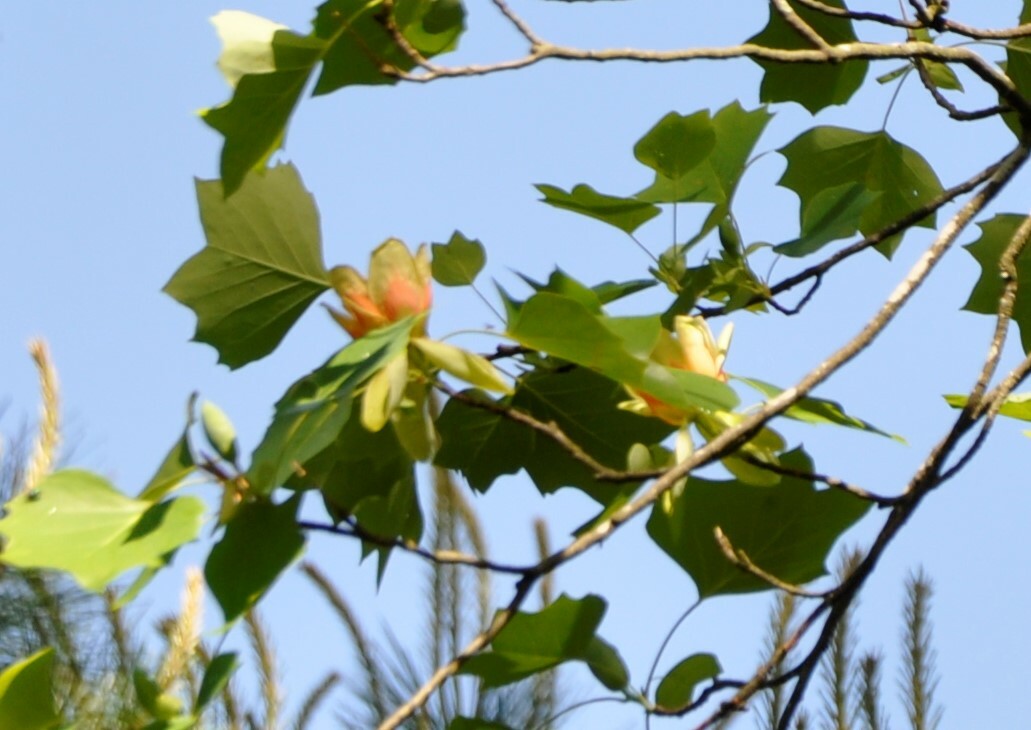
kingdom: Plantae
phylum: Tracheophyta
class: Magnoliopsida
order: Magnoliales
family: Magnoliaceae
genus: Liriodendron
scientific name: Liriodendron tulipifera
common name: Tulip tree
